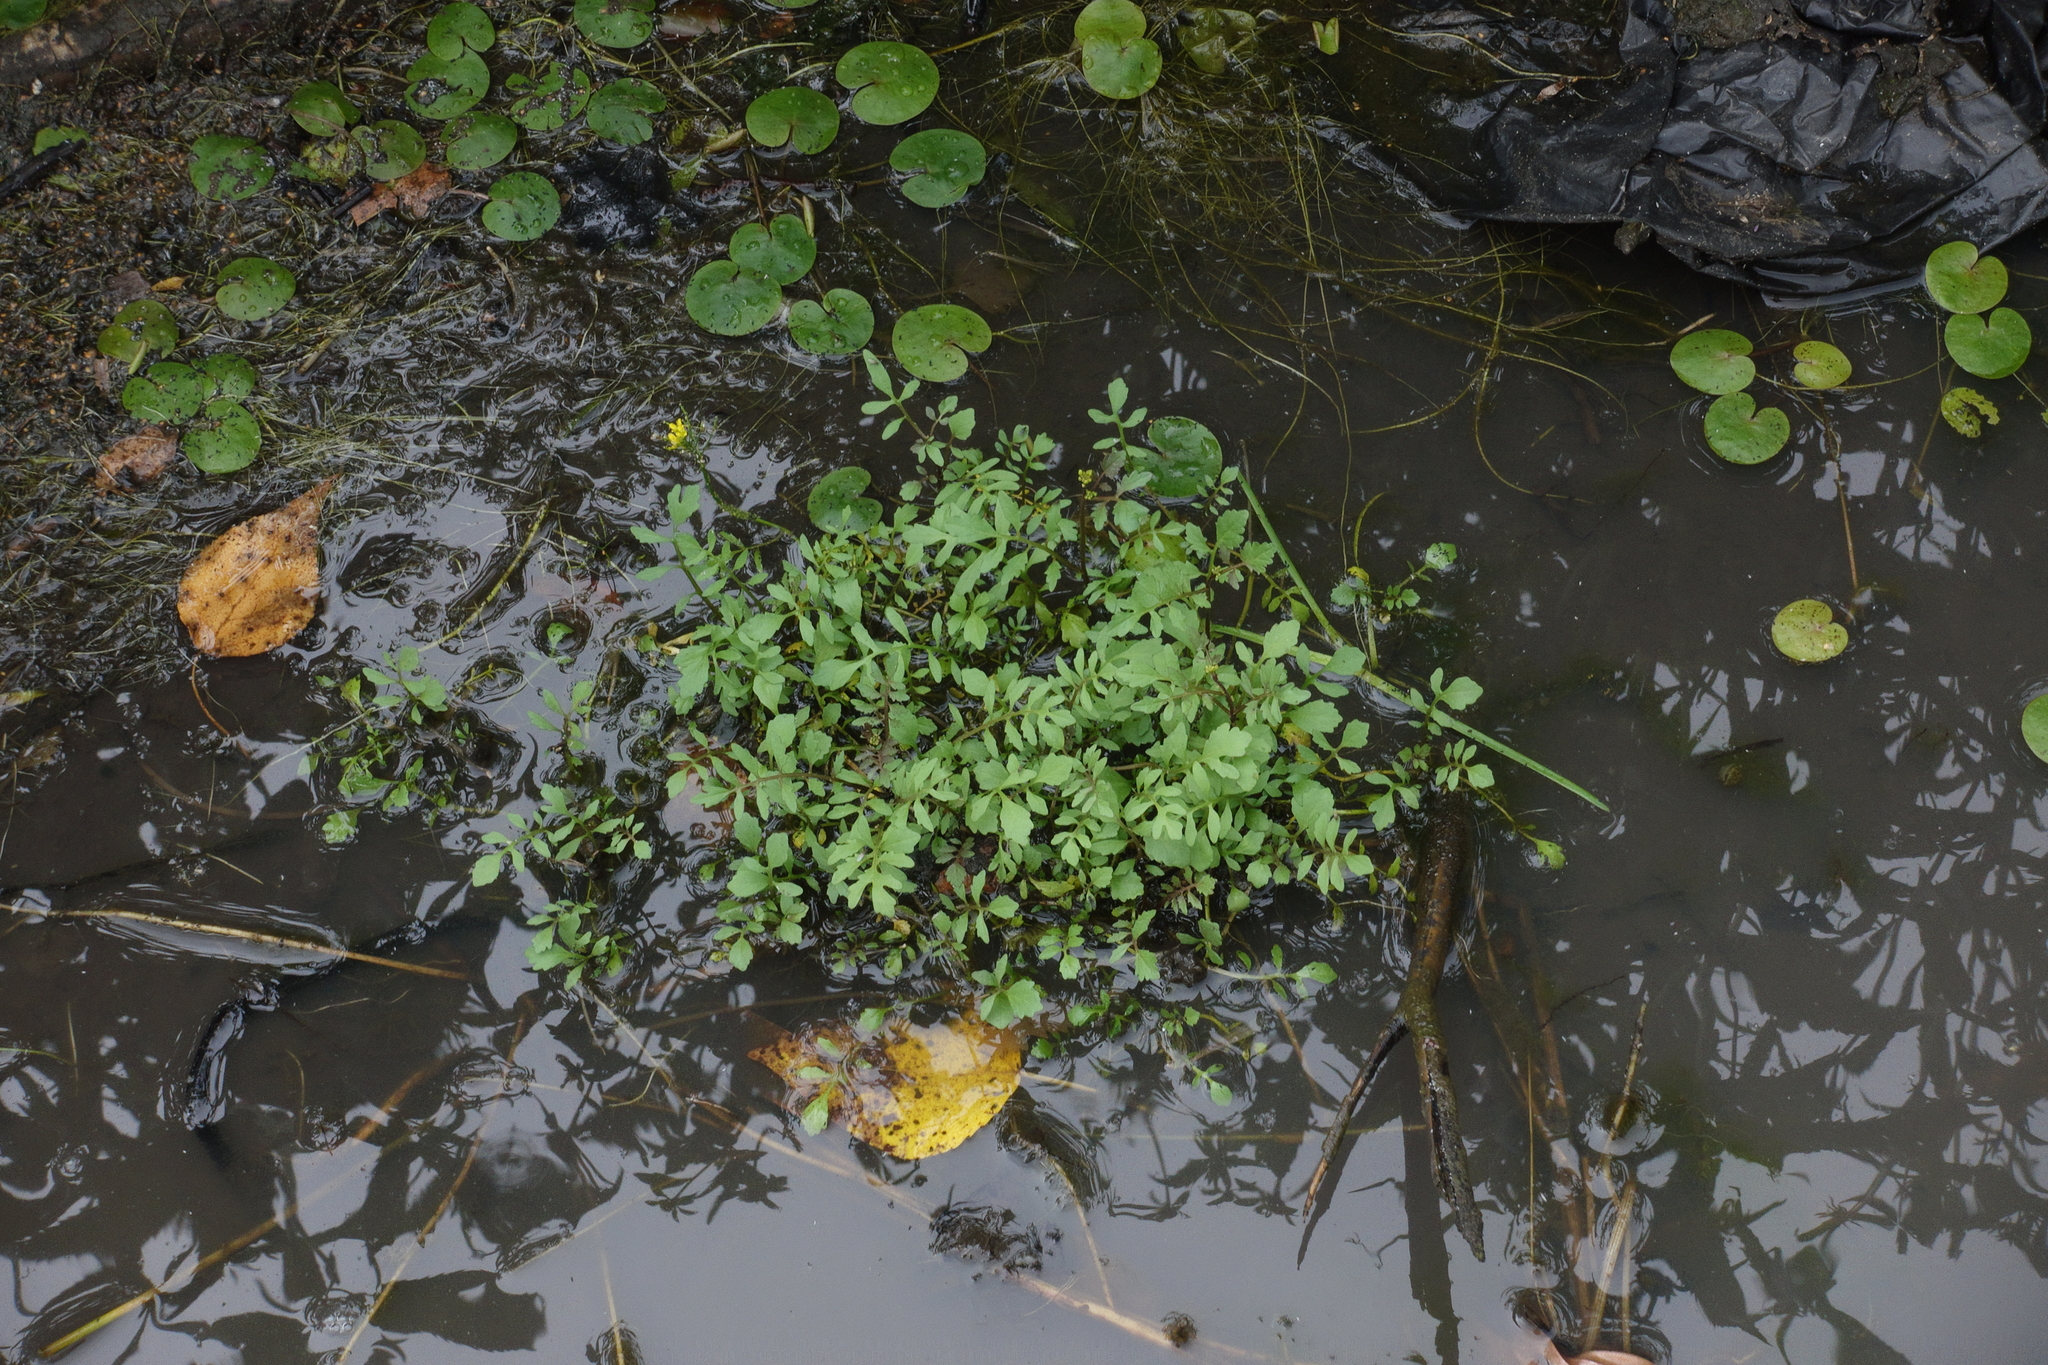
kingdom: Plantae
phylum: Tracheophyta
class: Magnoliopsida
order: Brassicales
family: Brassicaceae
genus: Rorippa
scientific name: Rorippa sylvestris
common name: Creeping yellowcress
